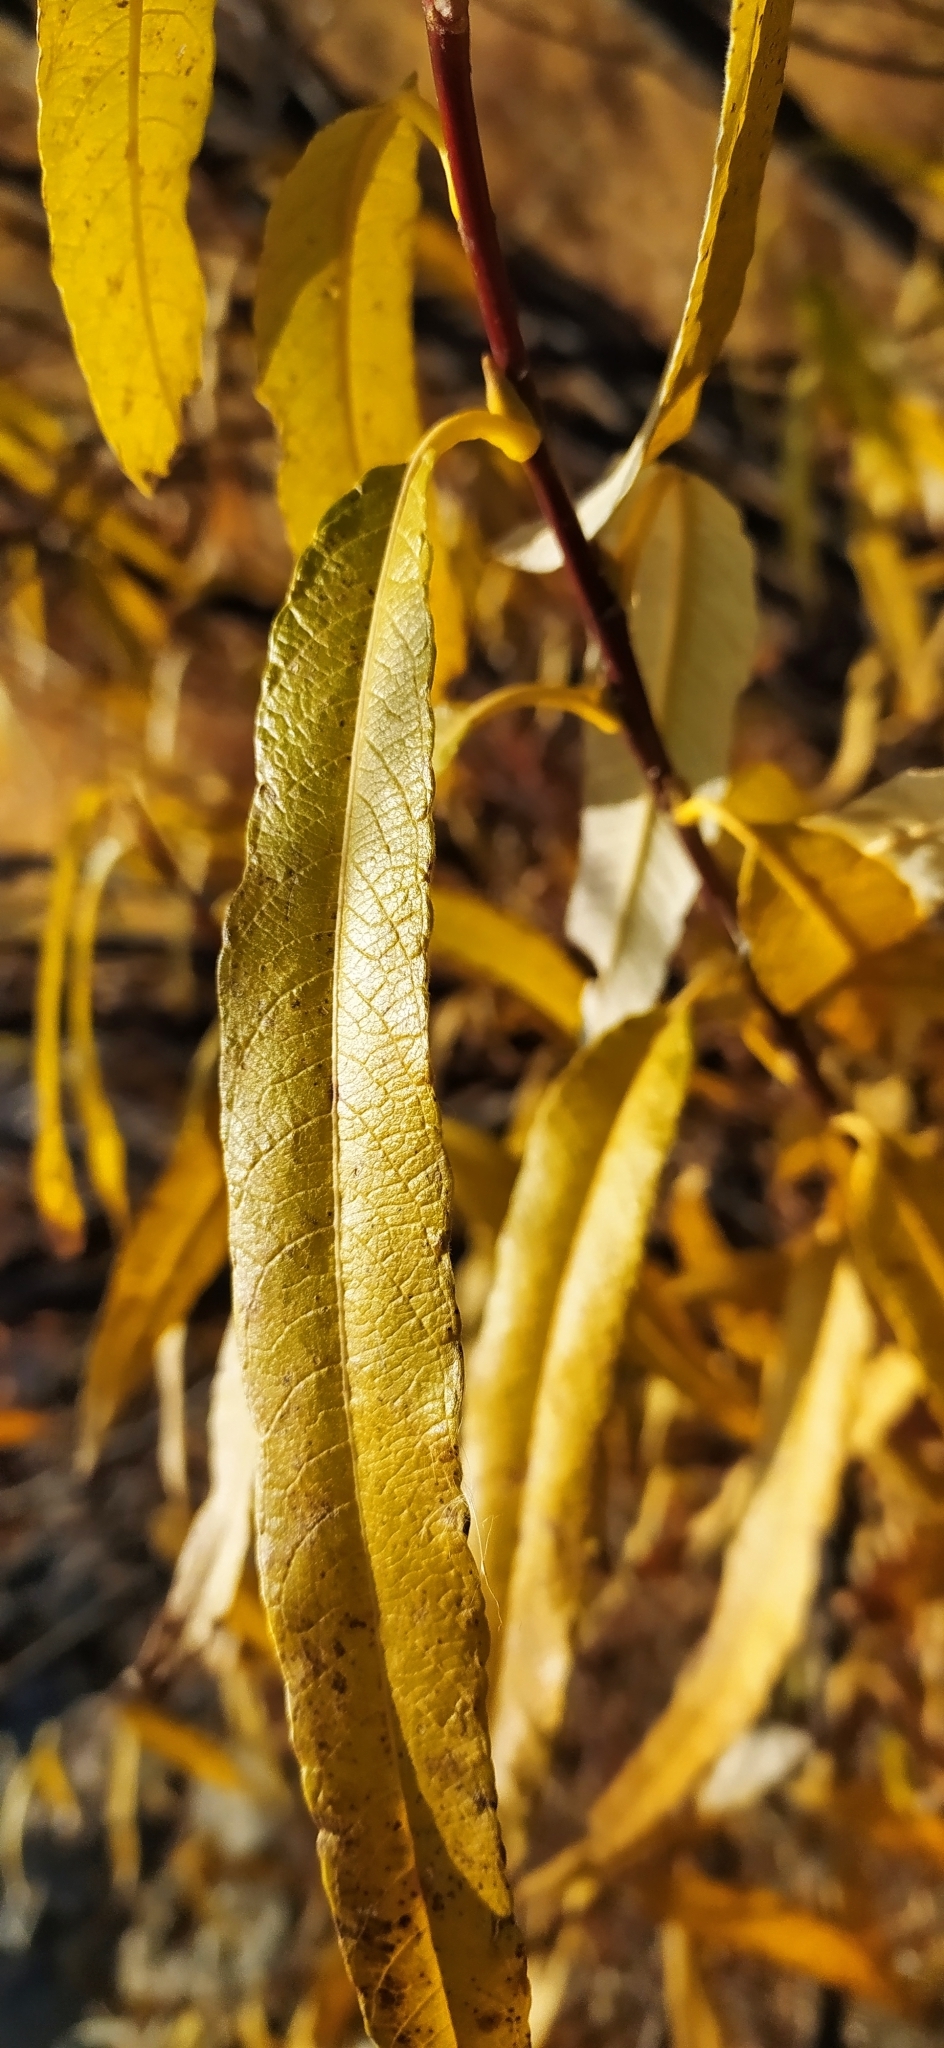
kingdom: Plantae
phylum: Tracheophyta
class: Magnoliopsida
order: Malpighiales
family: Salicaceae
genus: Salix
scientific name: Salix gmelinii
